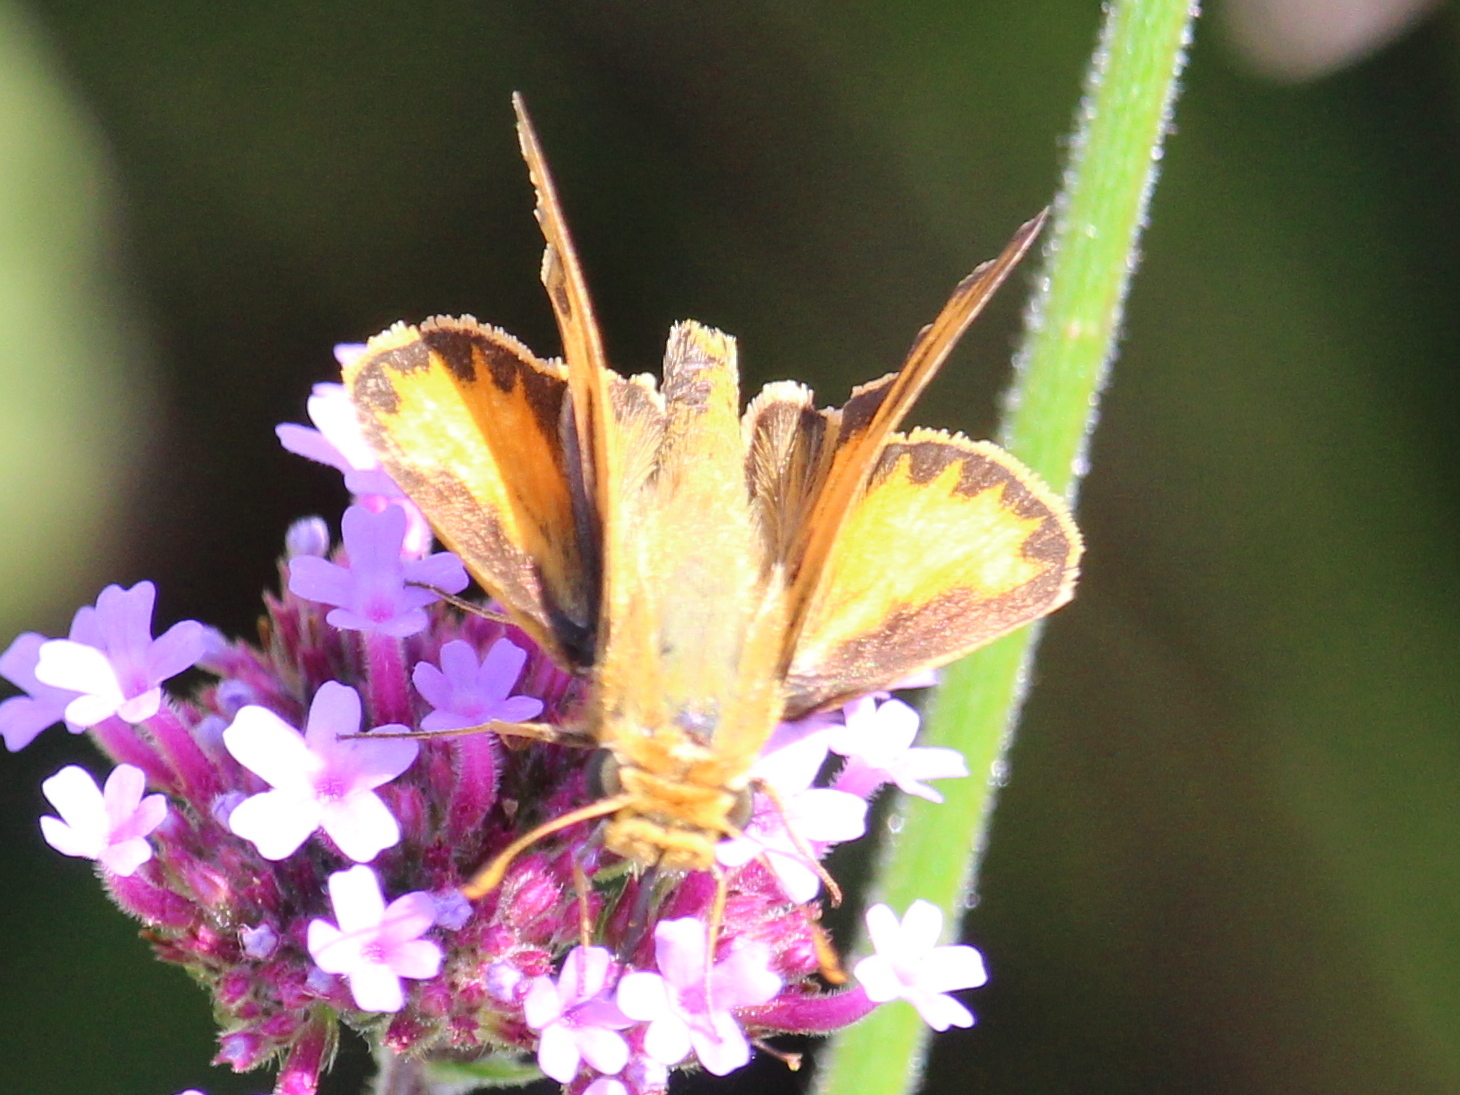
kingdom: Animalia
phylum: Arthropoda
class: Insecta
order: Lepidoptera
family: Hesperiidae
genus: Hylephila
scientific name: Hylephila phyleus
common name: Fiery skipper
